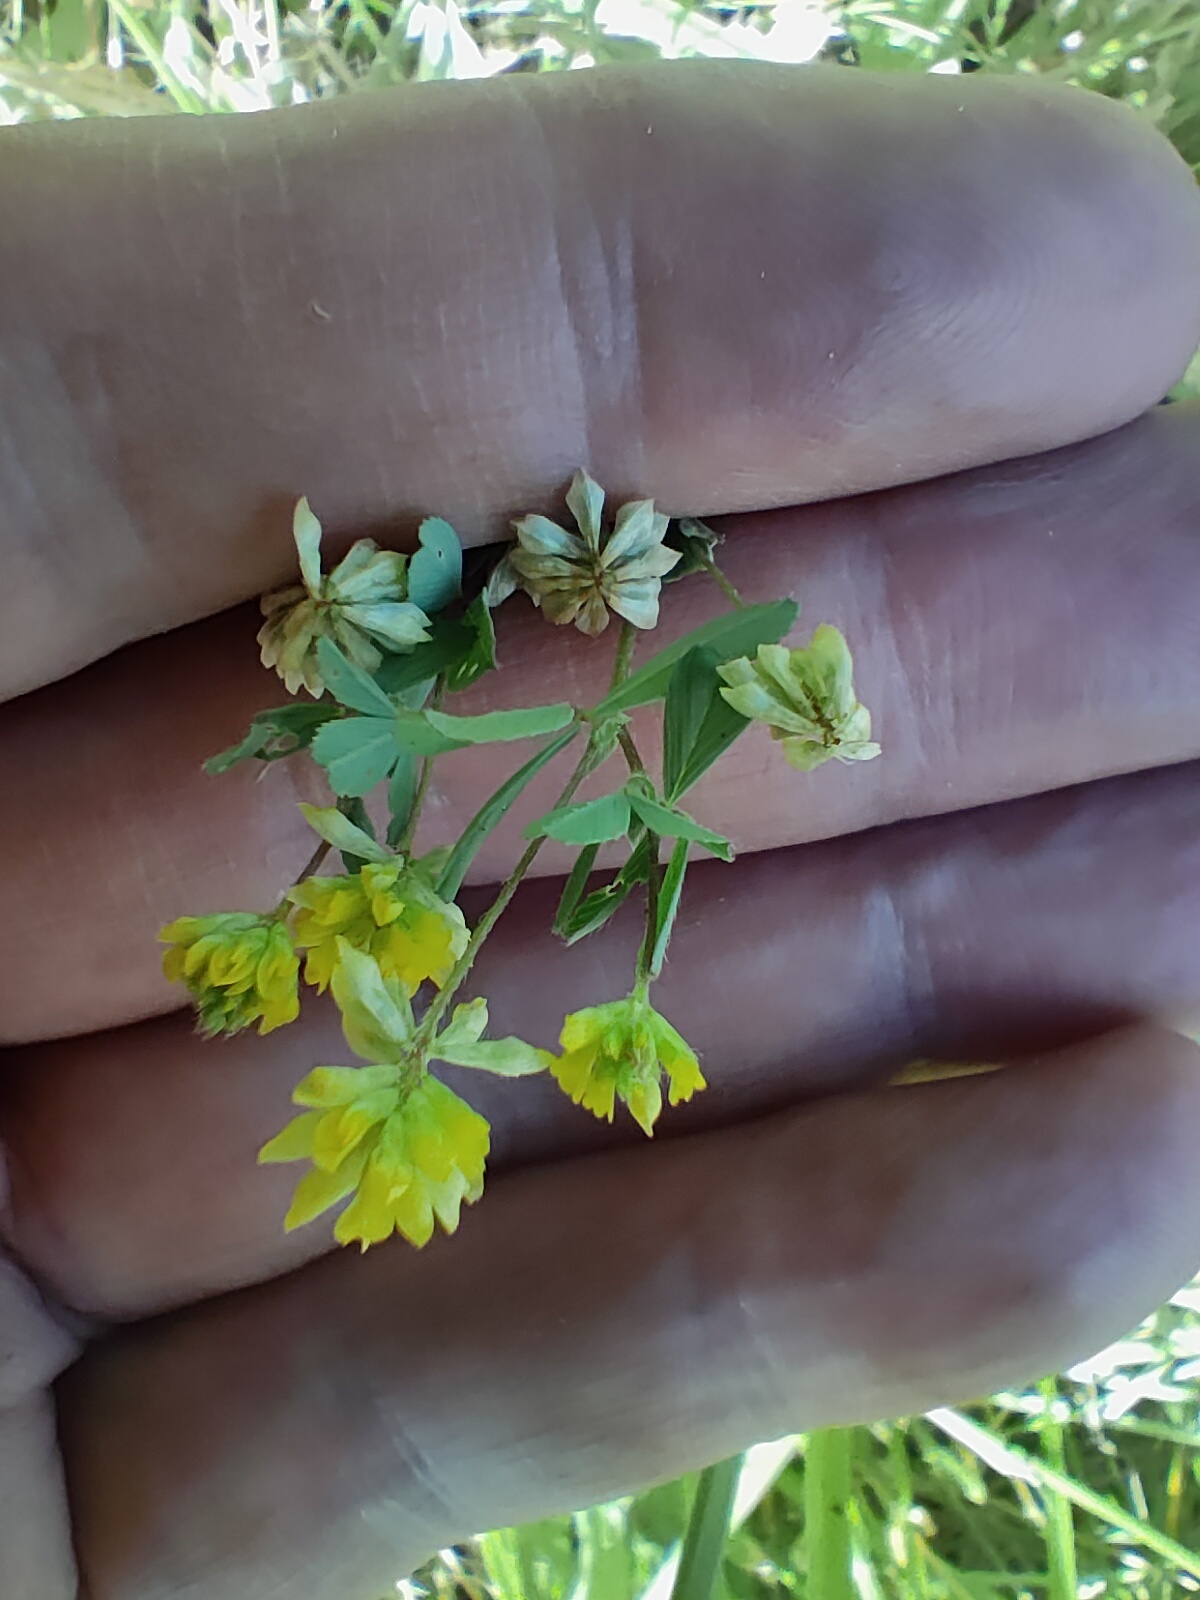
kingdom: Plantae
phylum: Tracheophyta
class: Magnoliopsida
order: Fabales
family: Fabaceae
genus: Trifolium
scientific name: Trifolium dubium
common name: Suckling clover
